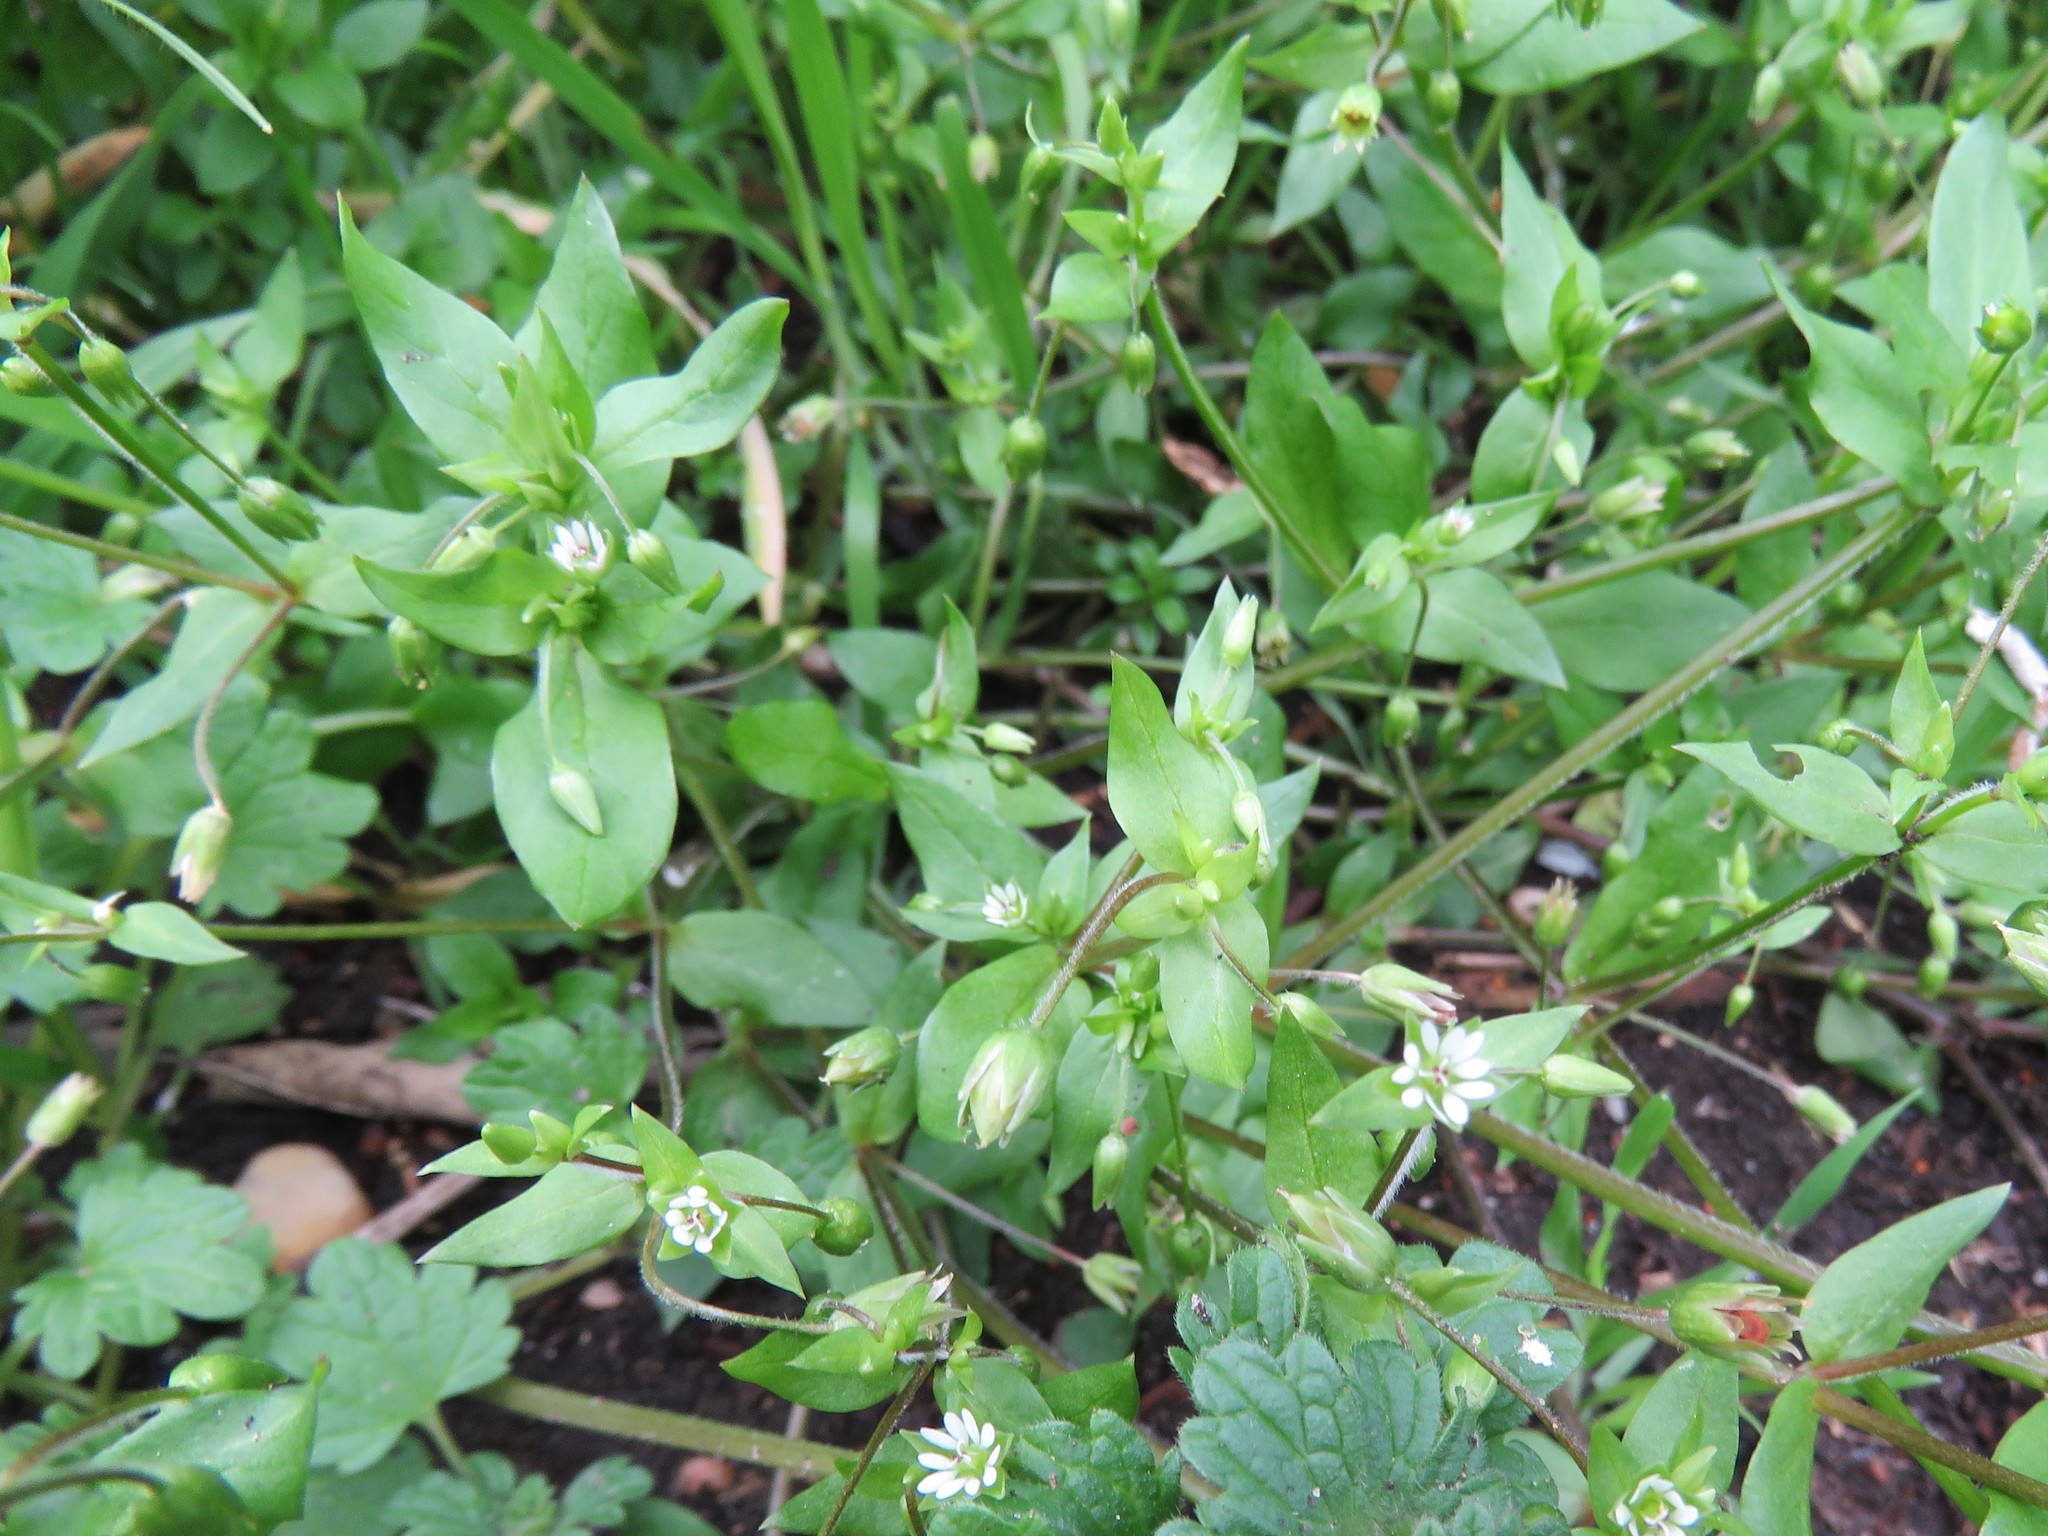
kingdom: Plantae
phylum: Tracheophyta
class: Magnoliopsida
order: Caryophyllales
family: Caryophyllaceae
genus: Stellaria
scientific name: Stellaria media
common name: Common chickweed
